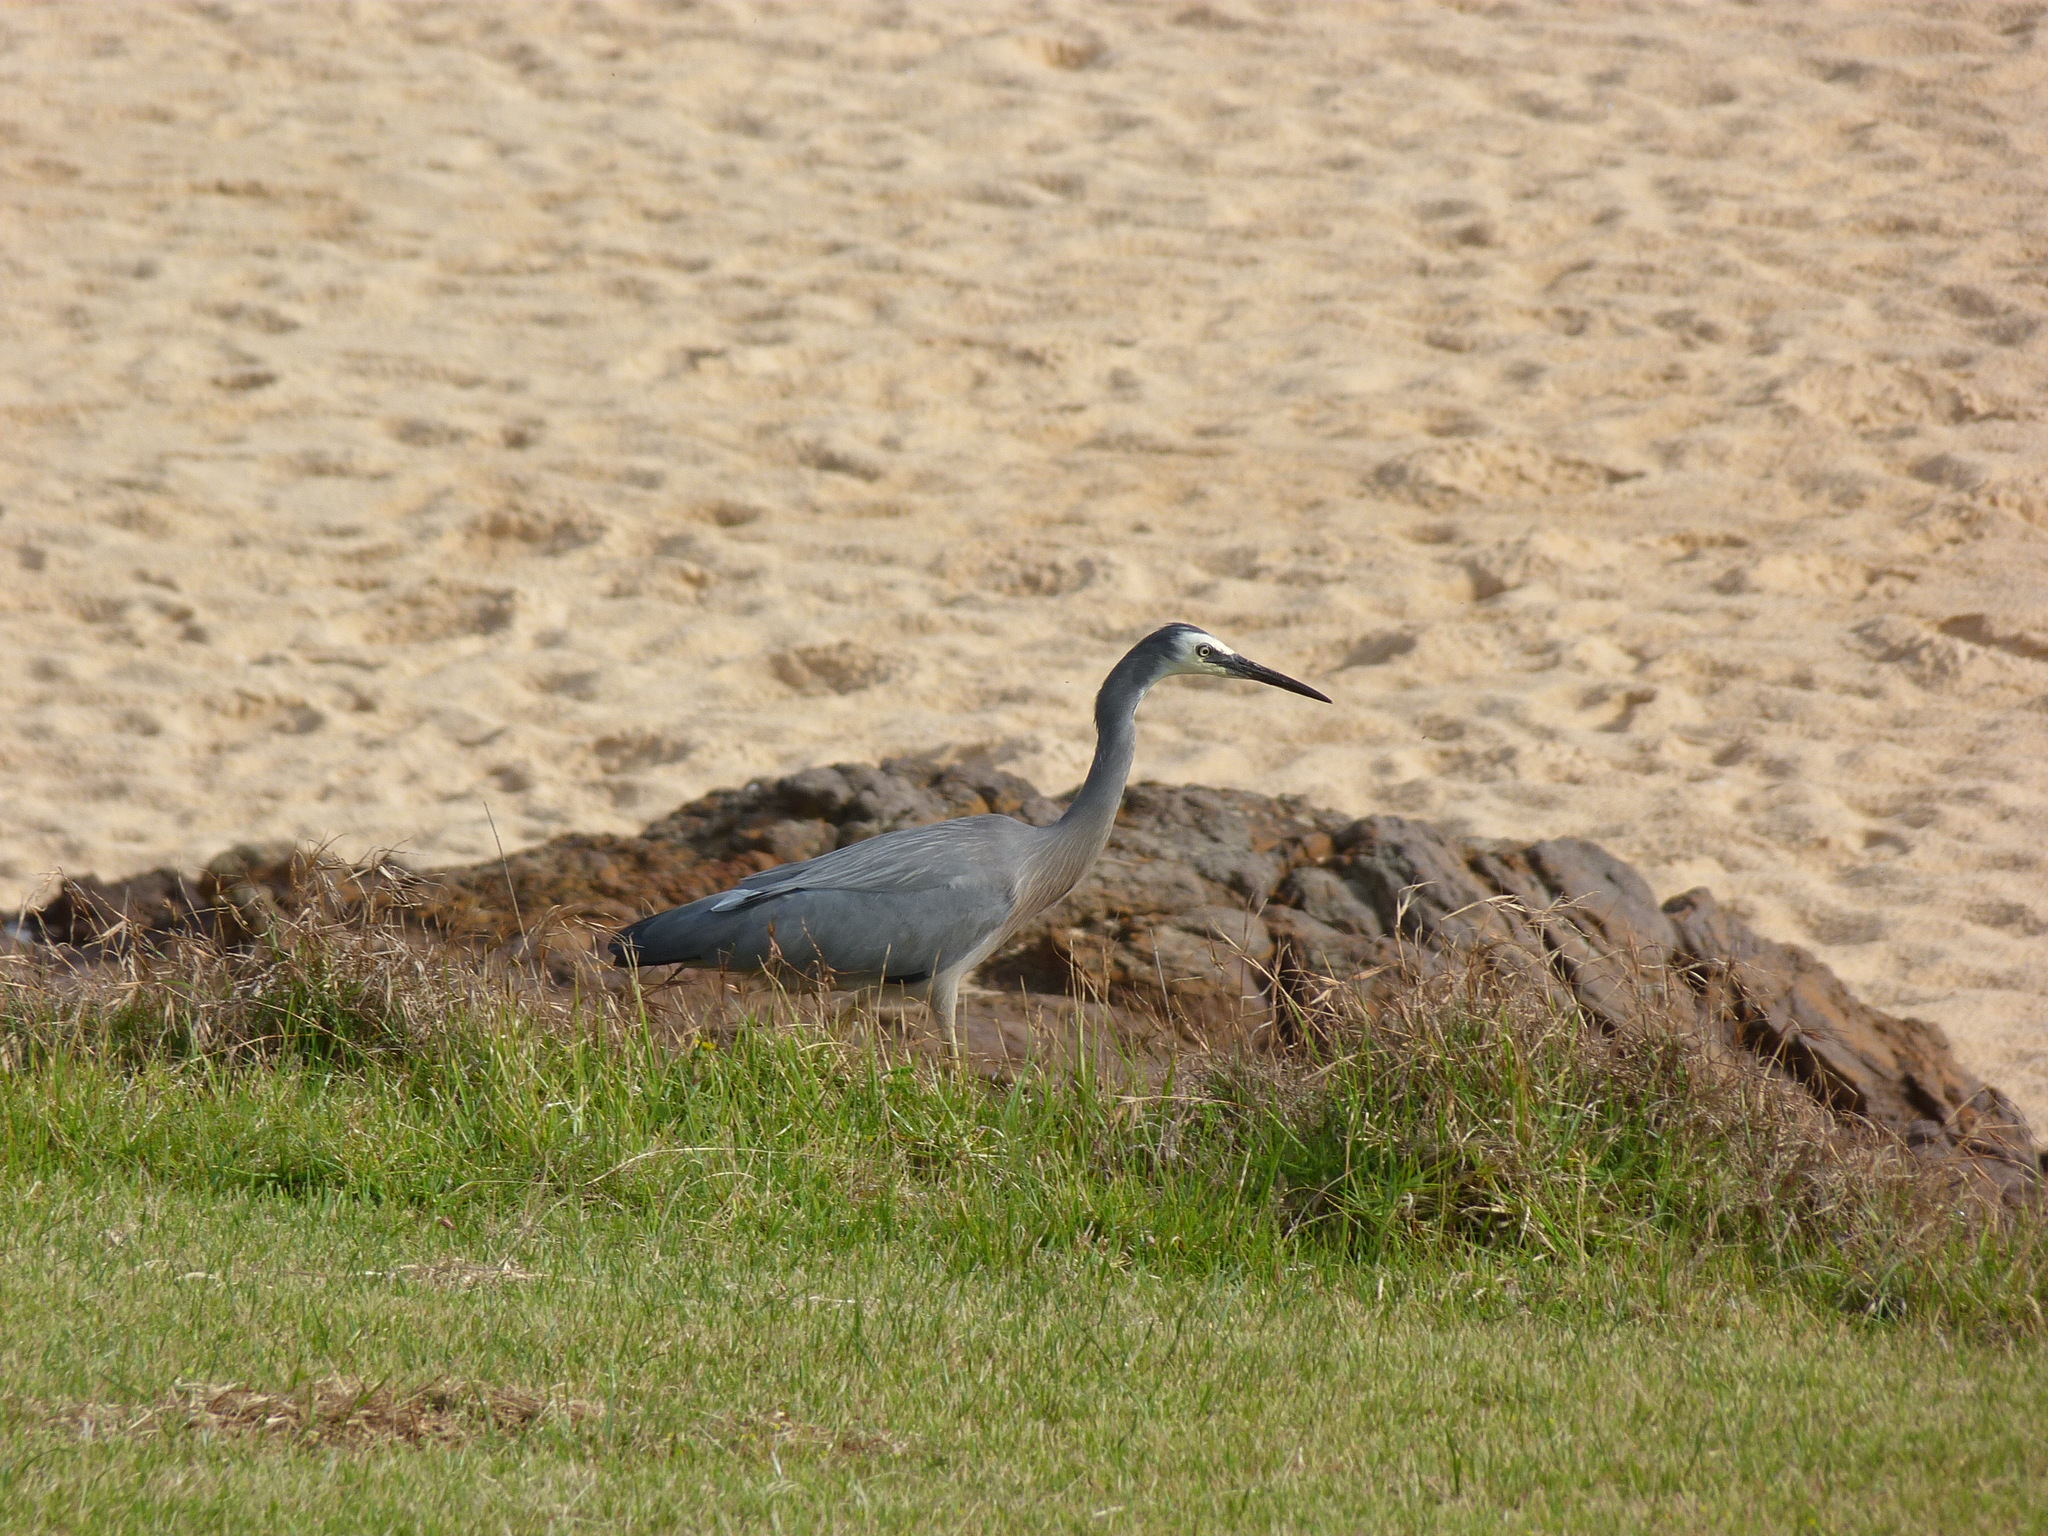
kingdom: Animalia
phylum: Chordata
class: Aves
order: Pelecaniformes
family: Ardeidae
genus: Egretta
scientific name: Egretta novaehollandiae
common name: White-faced heron
